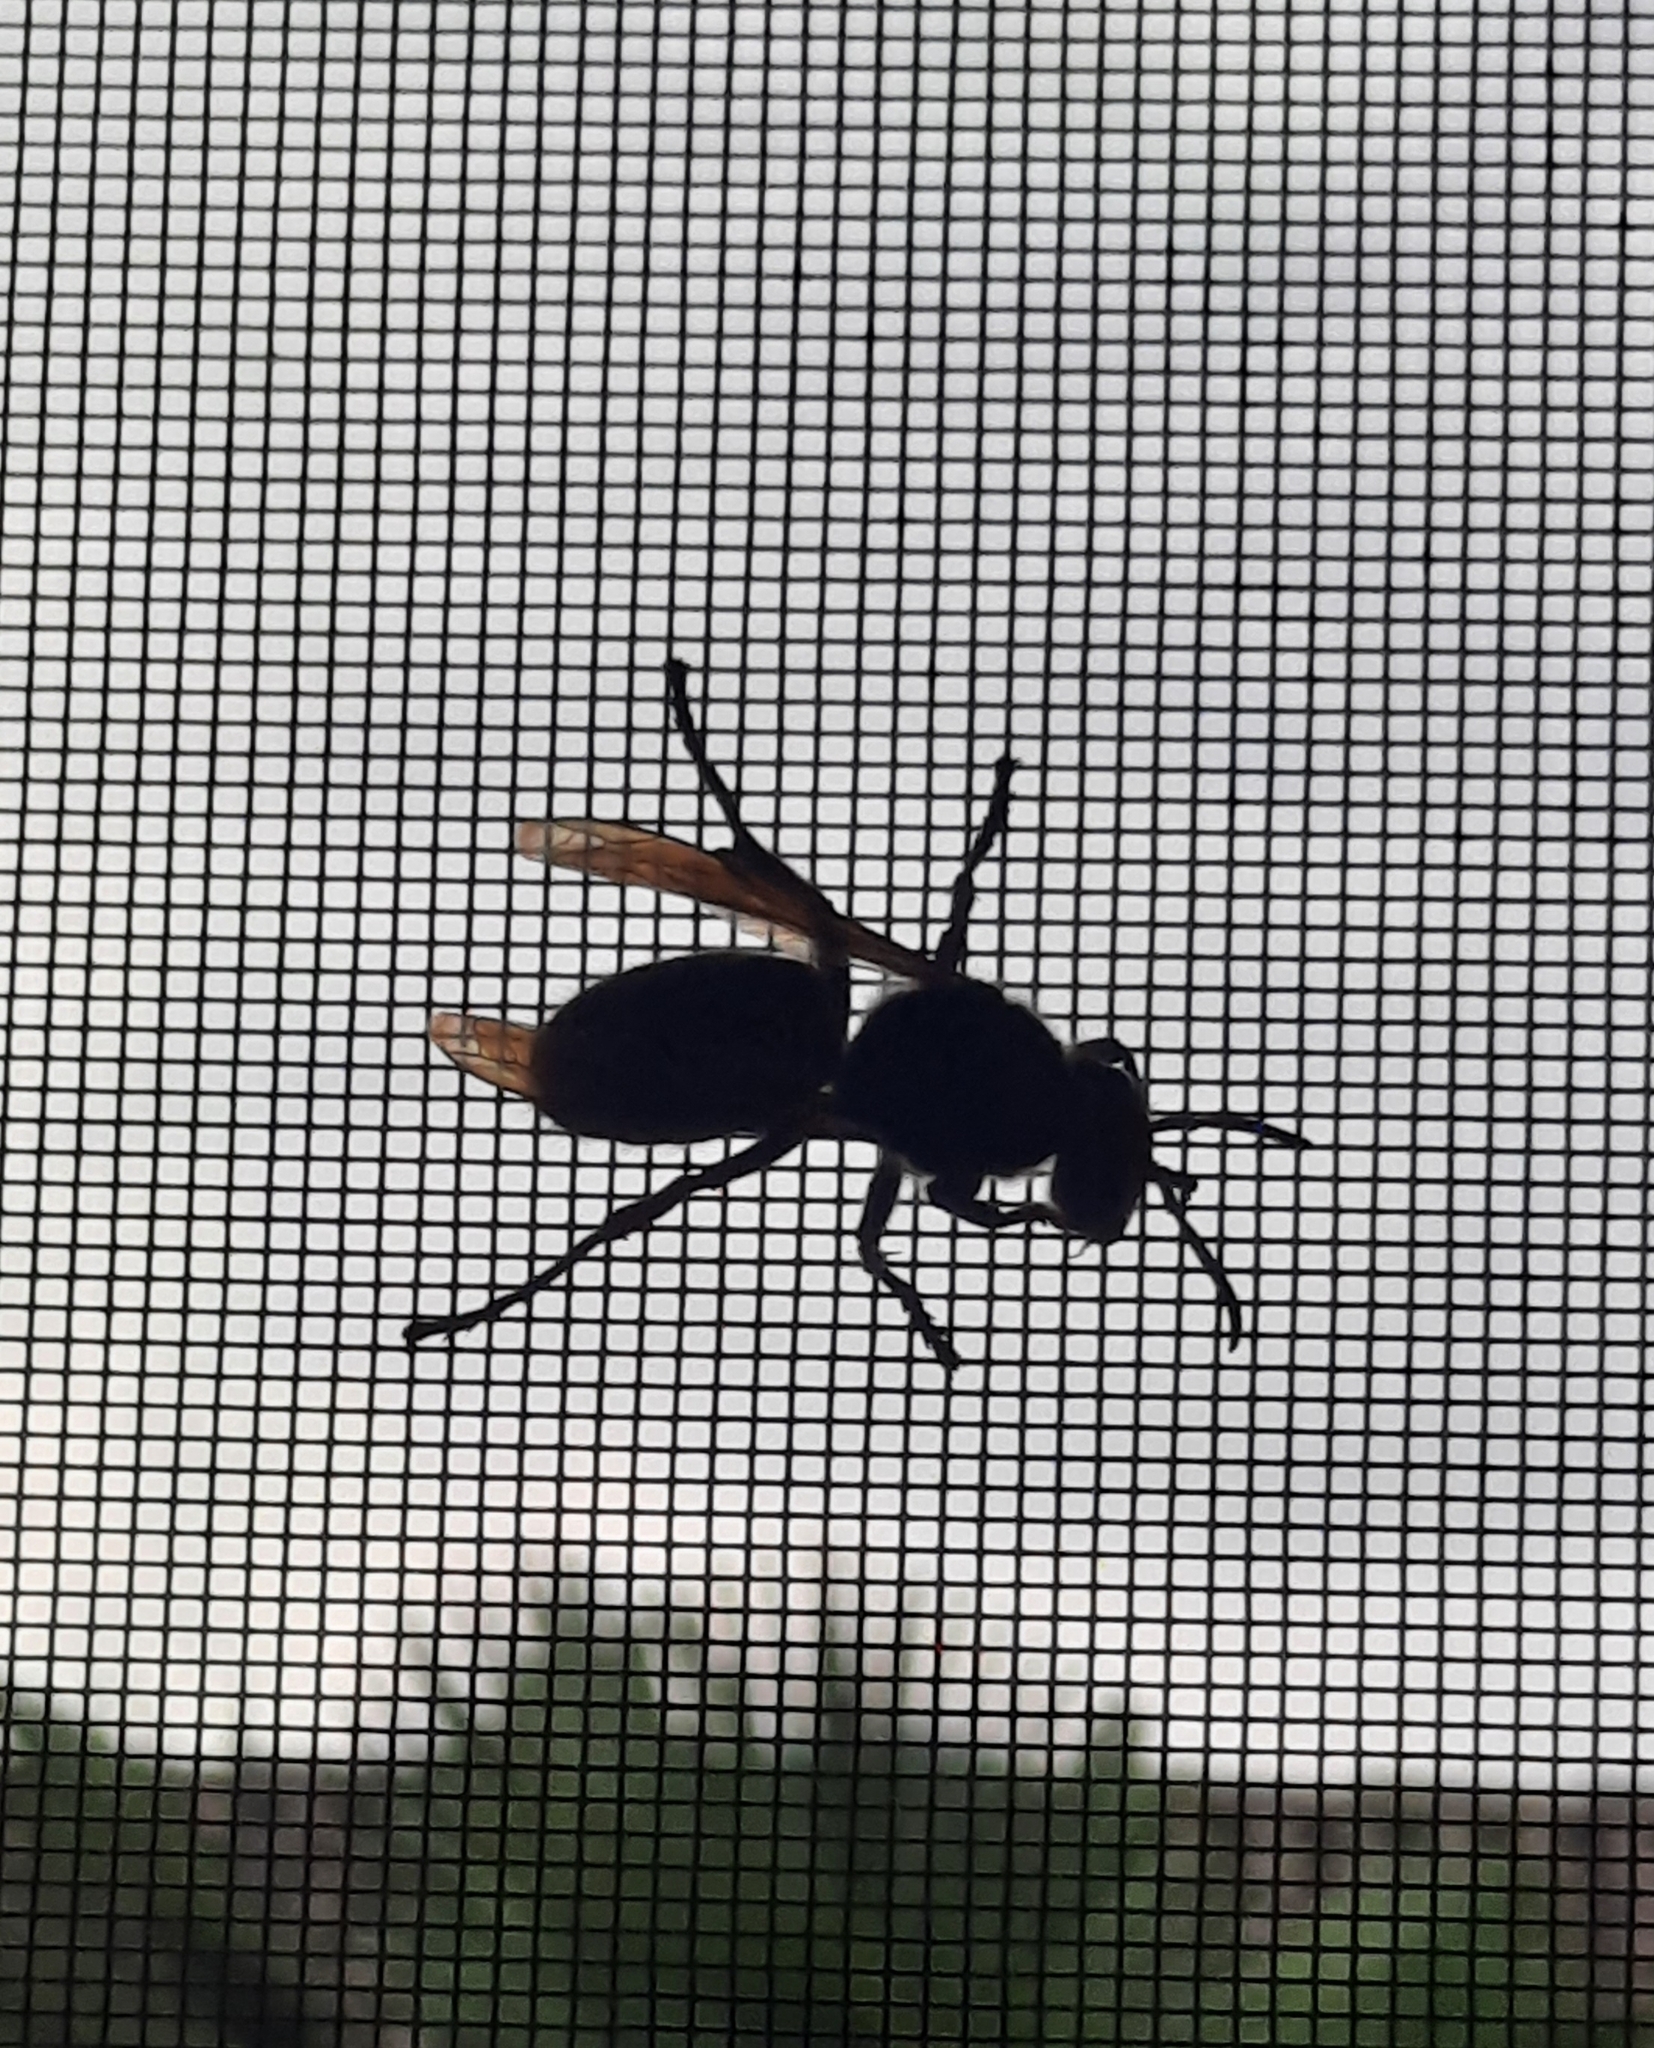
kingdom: Animalia
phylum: Arthropoda
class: Insecta
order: Hymenoptera
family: Vespidae
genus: Vespa
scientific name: Vespa crabro
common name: Hornet
